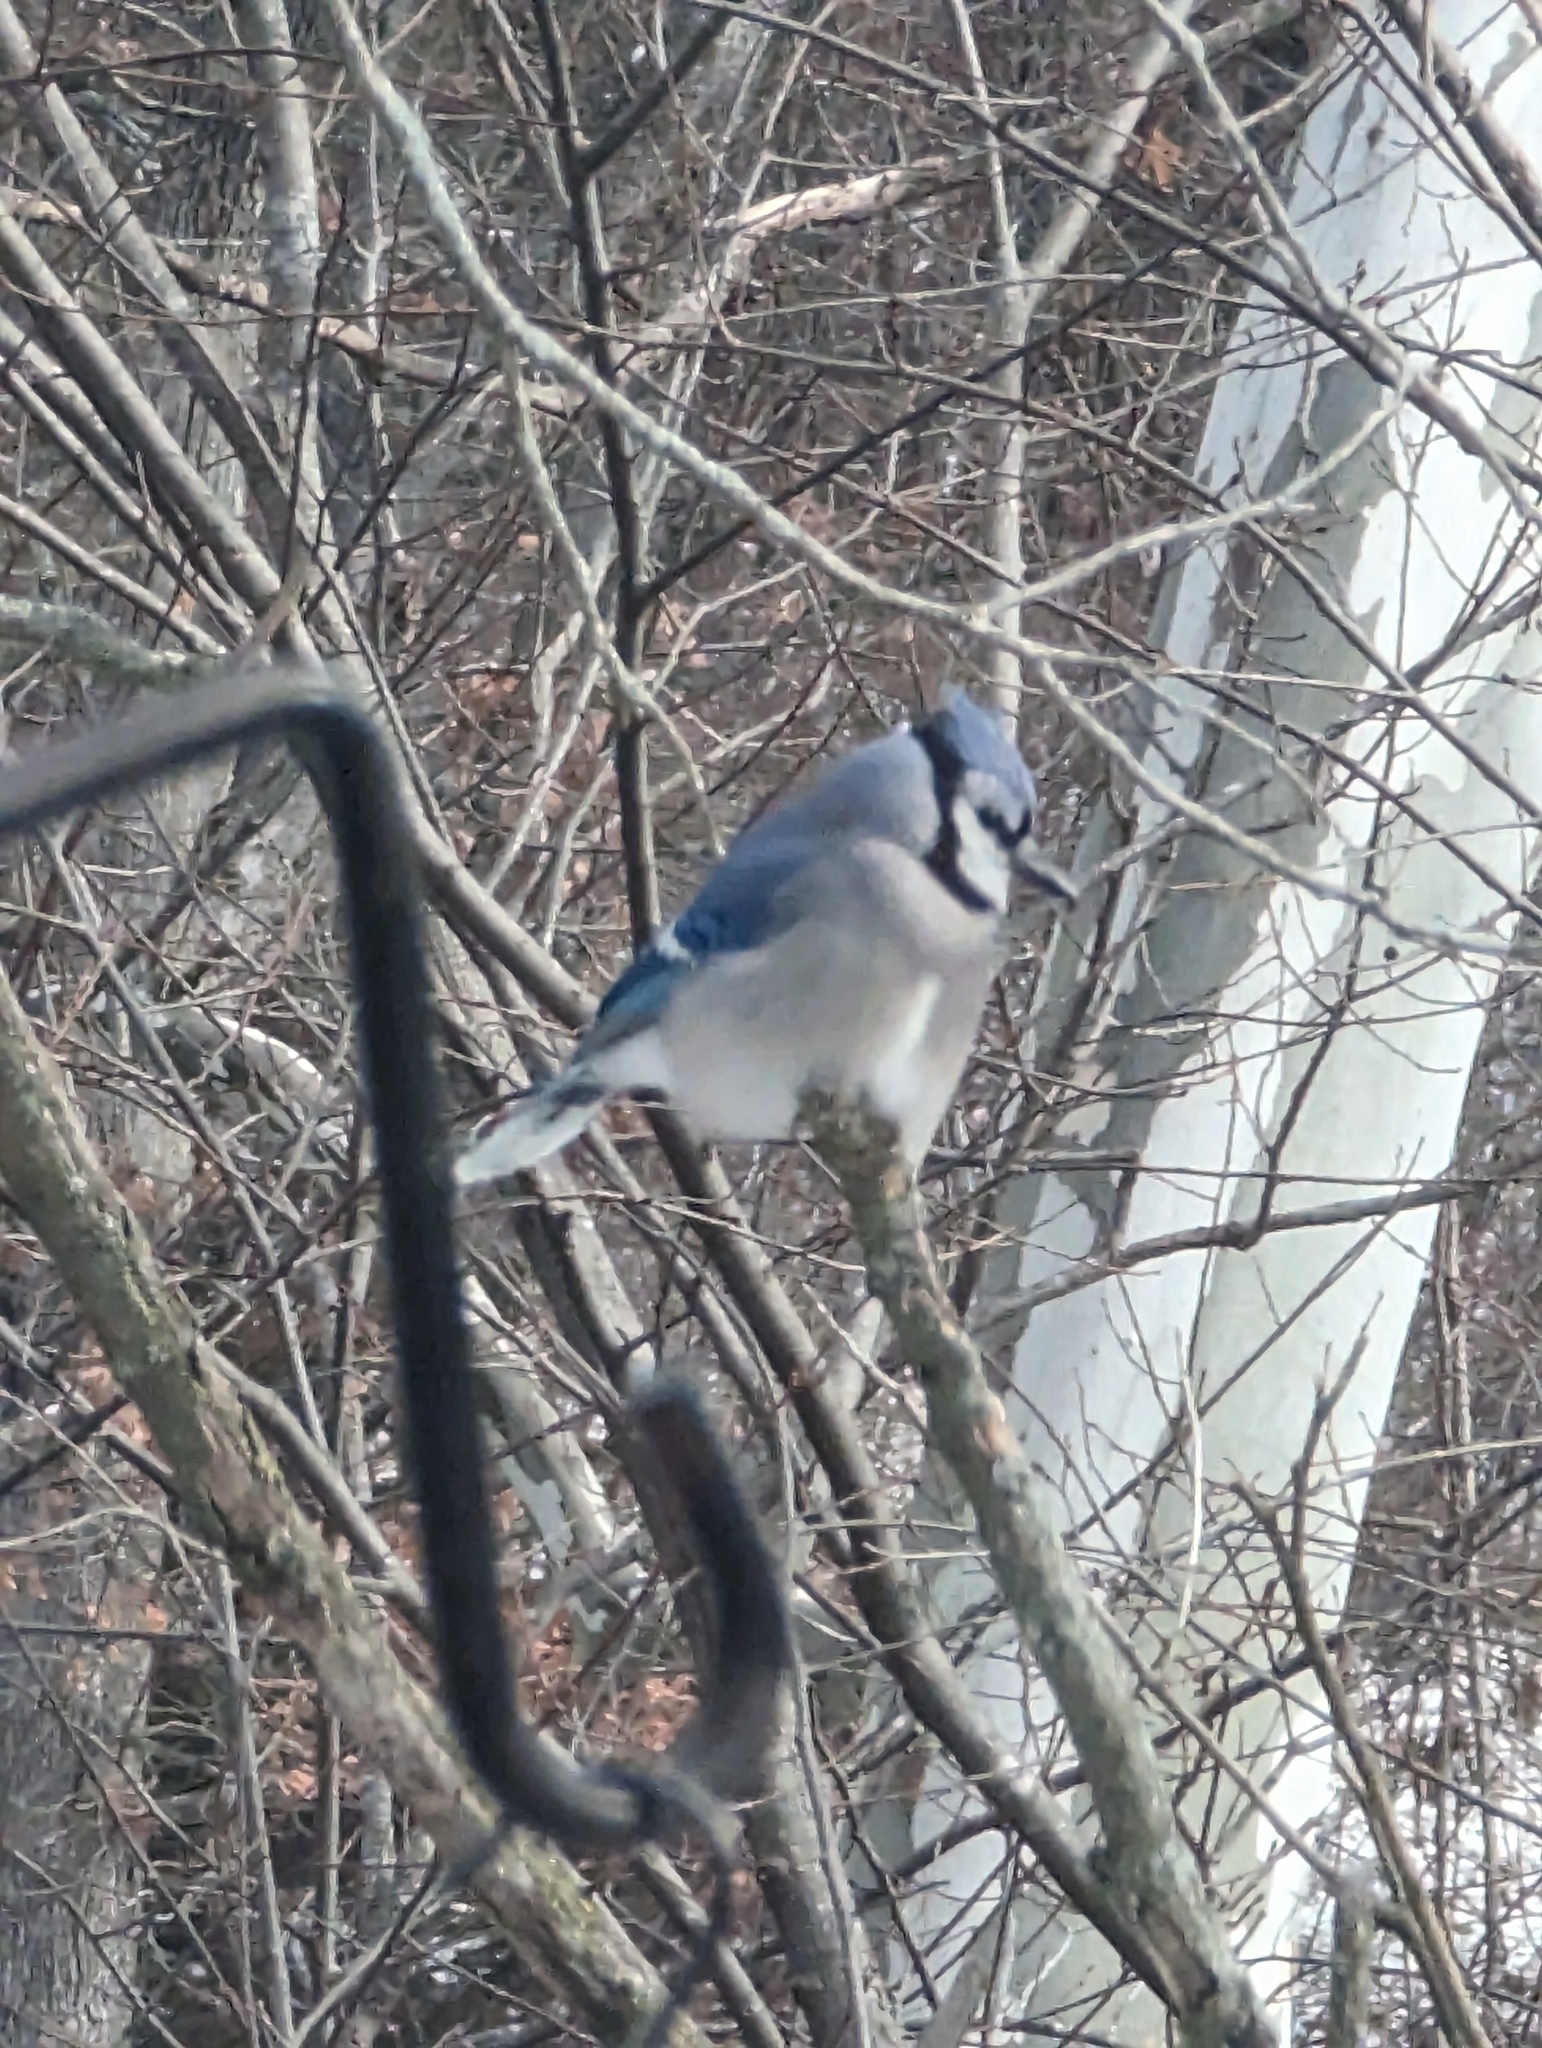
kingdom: Animalia
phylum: Chordata
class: Aves
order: Passeriformes
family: Corvidae
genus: Cyanocitta
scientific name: Cyanocitta cristata
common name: Blue jay
